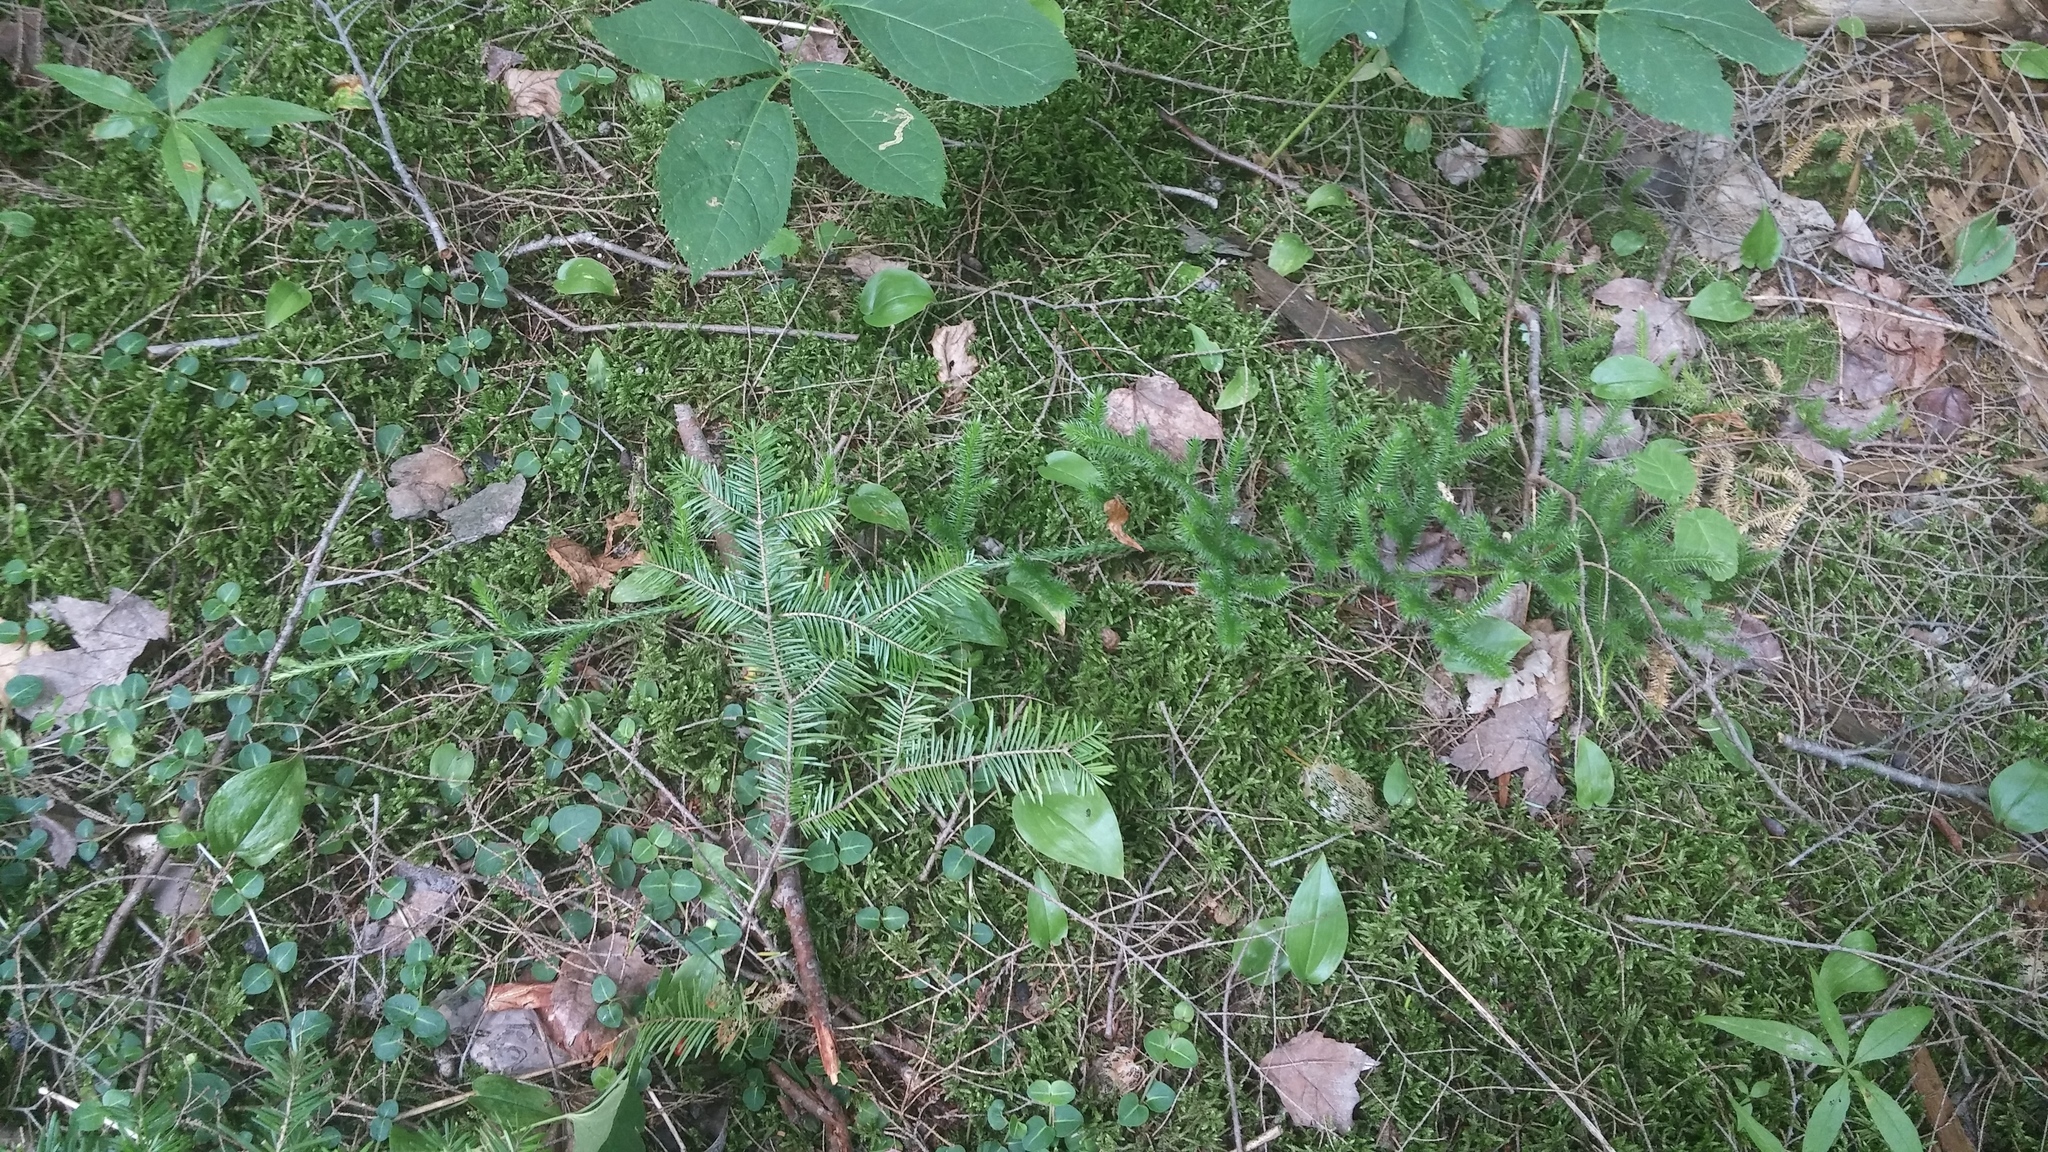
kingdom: Plantae
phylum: Tracheophyta
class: Lycopodiopsida
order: Lycopodiales
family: Lycopodiaceae
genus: Lycopodium
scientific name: Lycopodium clavatum
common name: Stag's-horn clubmoss
